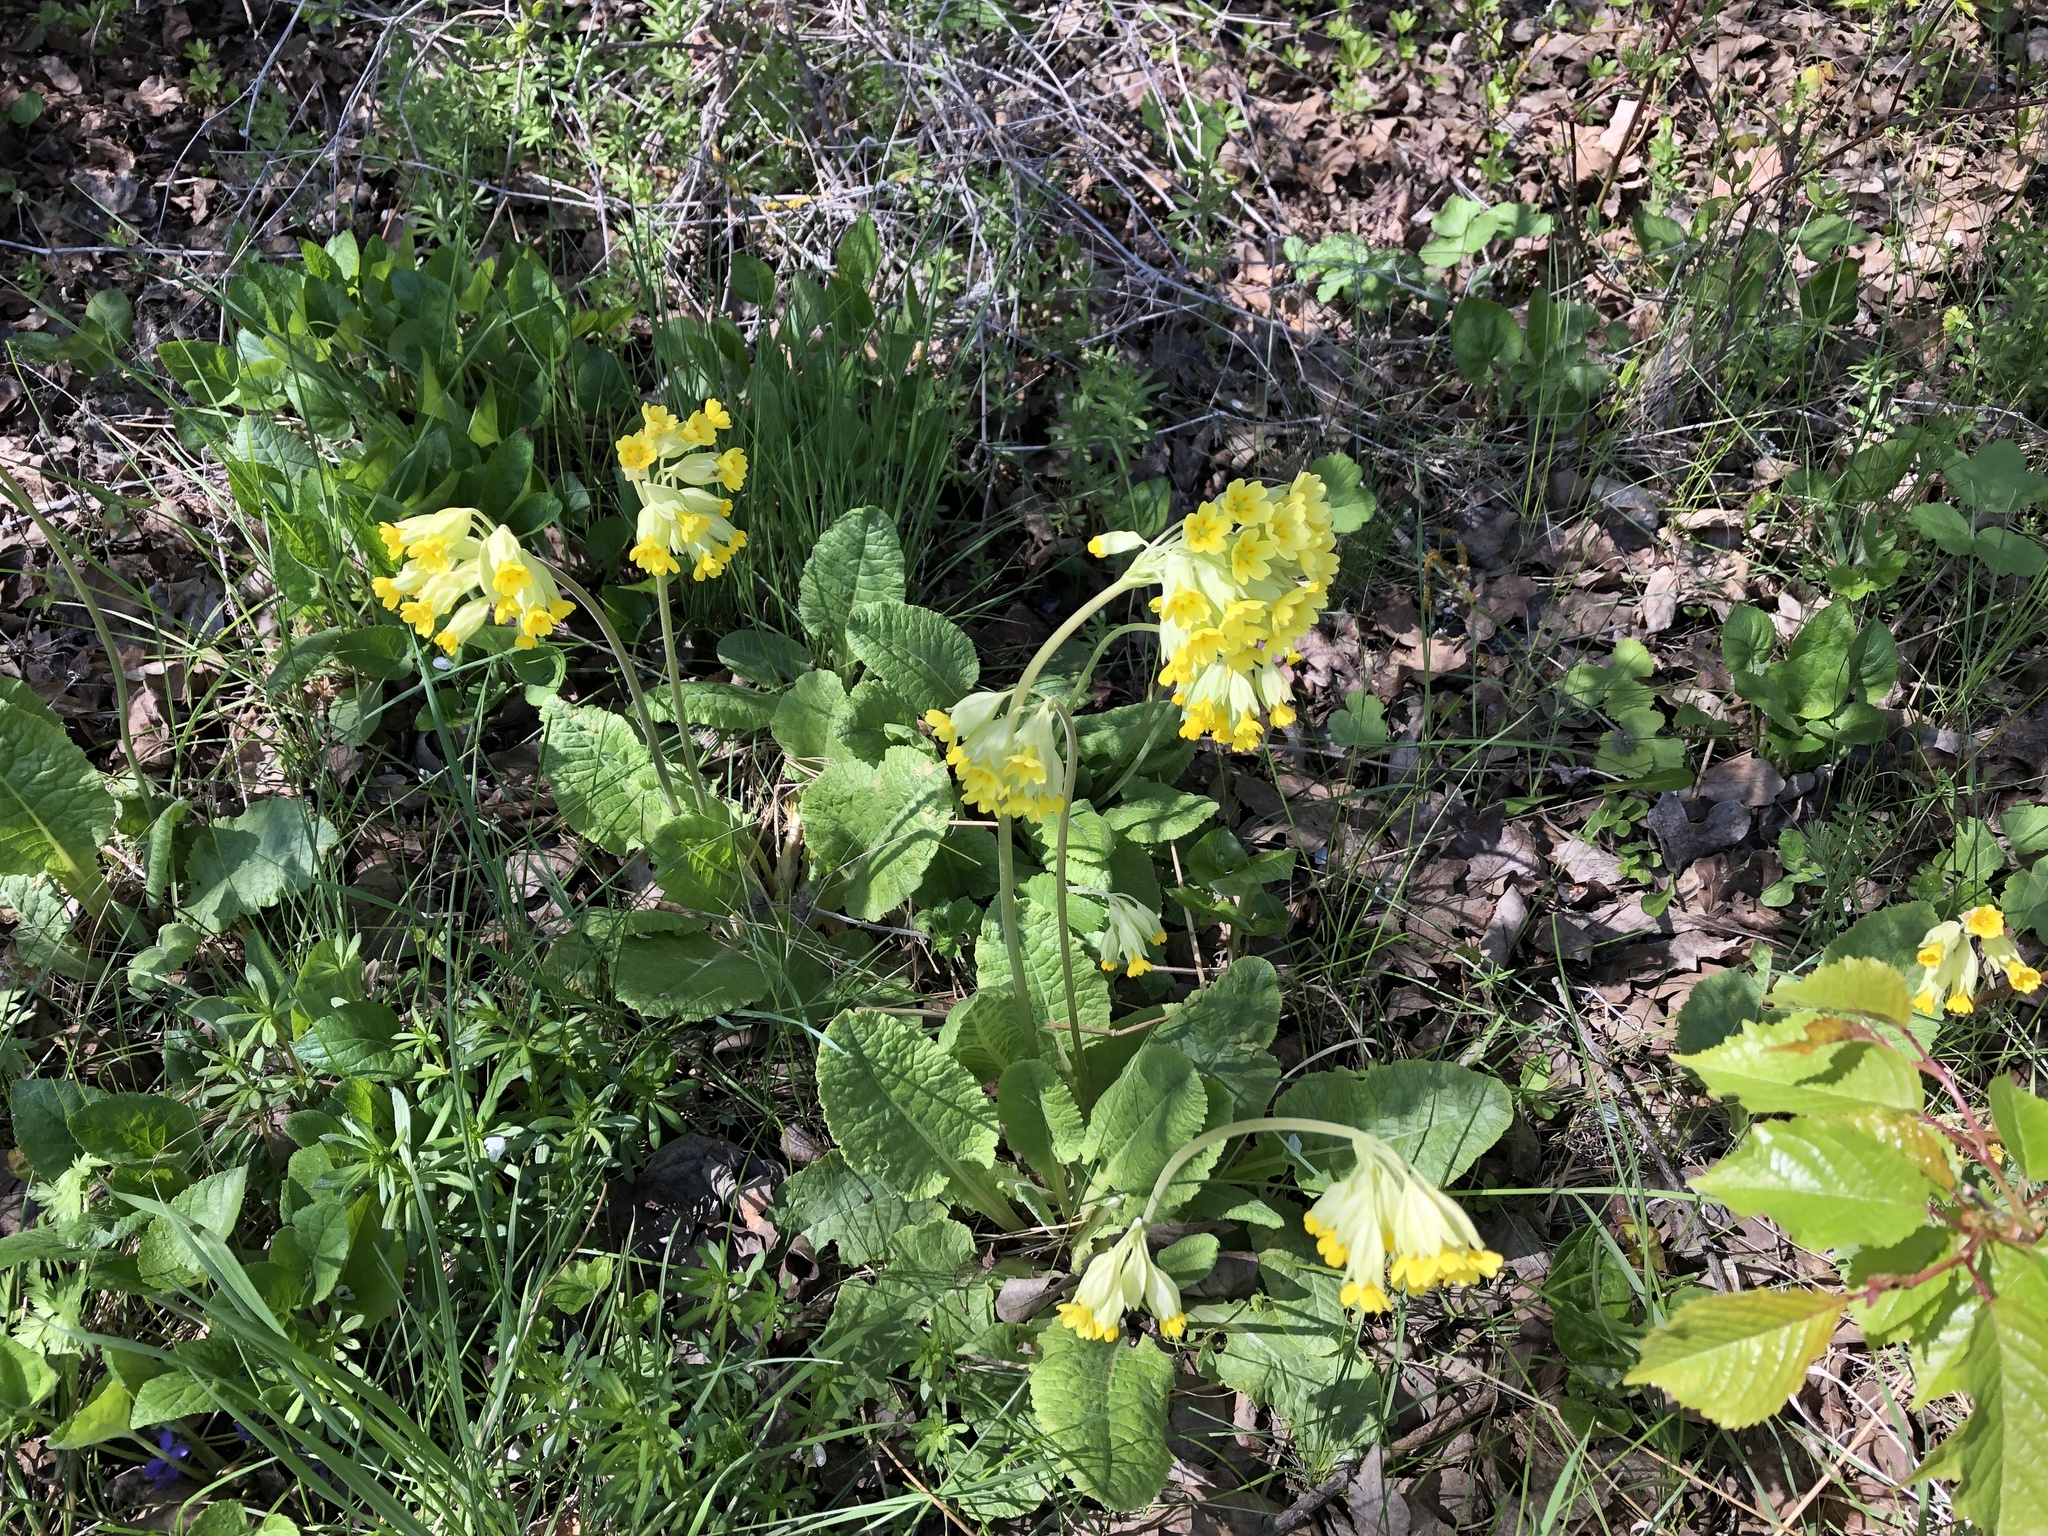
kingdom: Plantae
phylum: Tracheophyta
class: Magnoliopsida
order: Ericales
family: Primulaceae
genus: Primula
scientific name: Primula veris
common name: Cowslip
